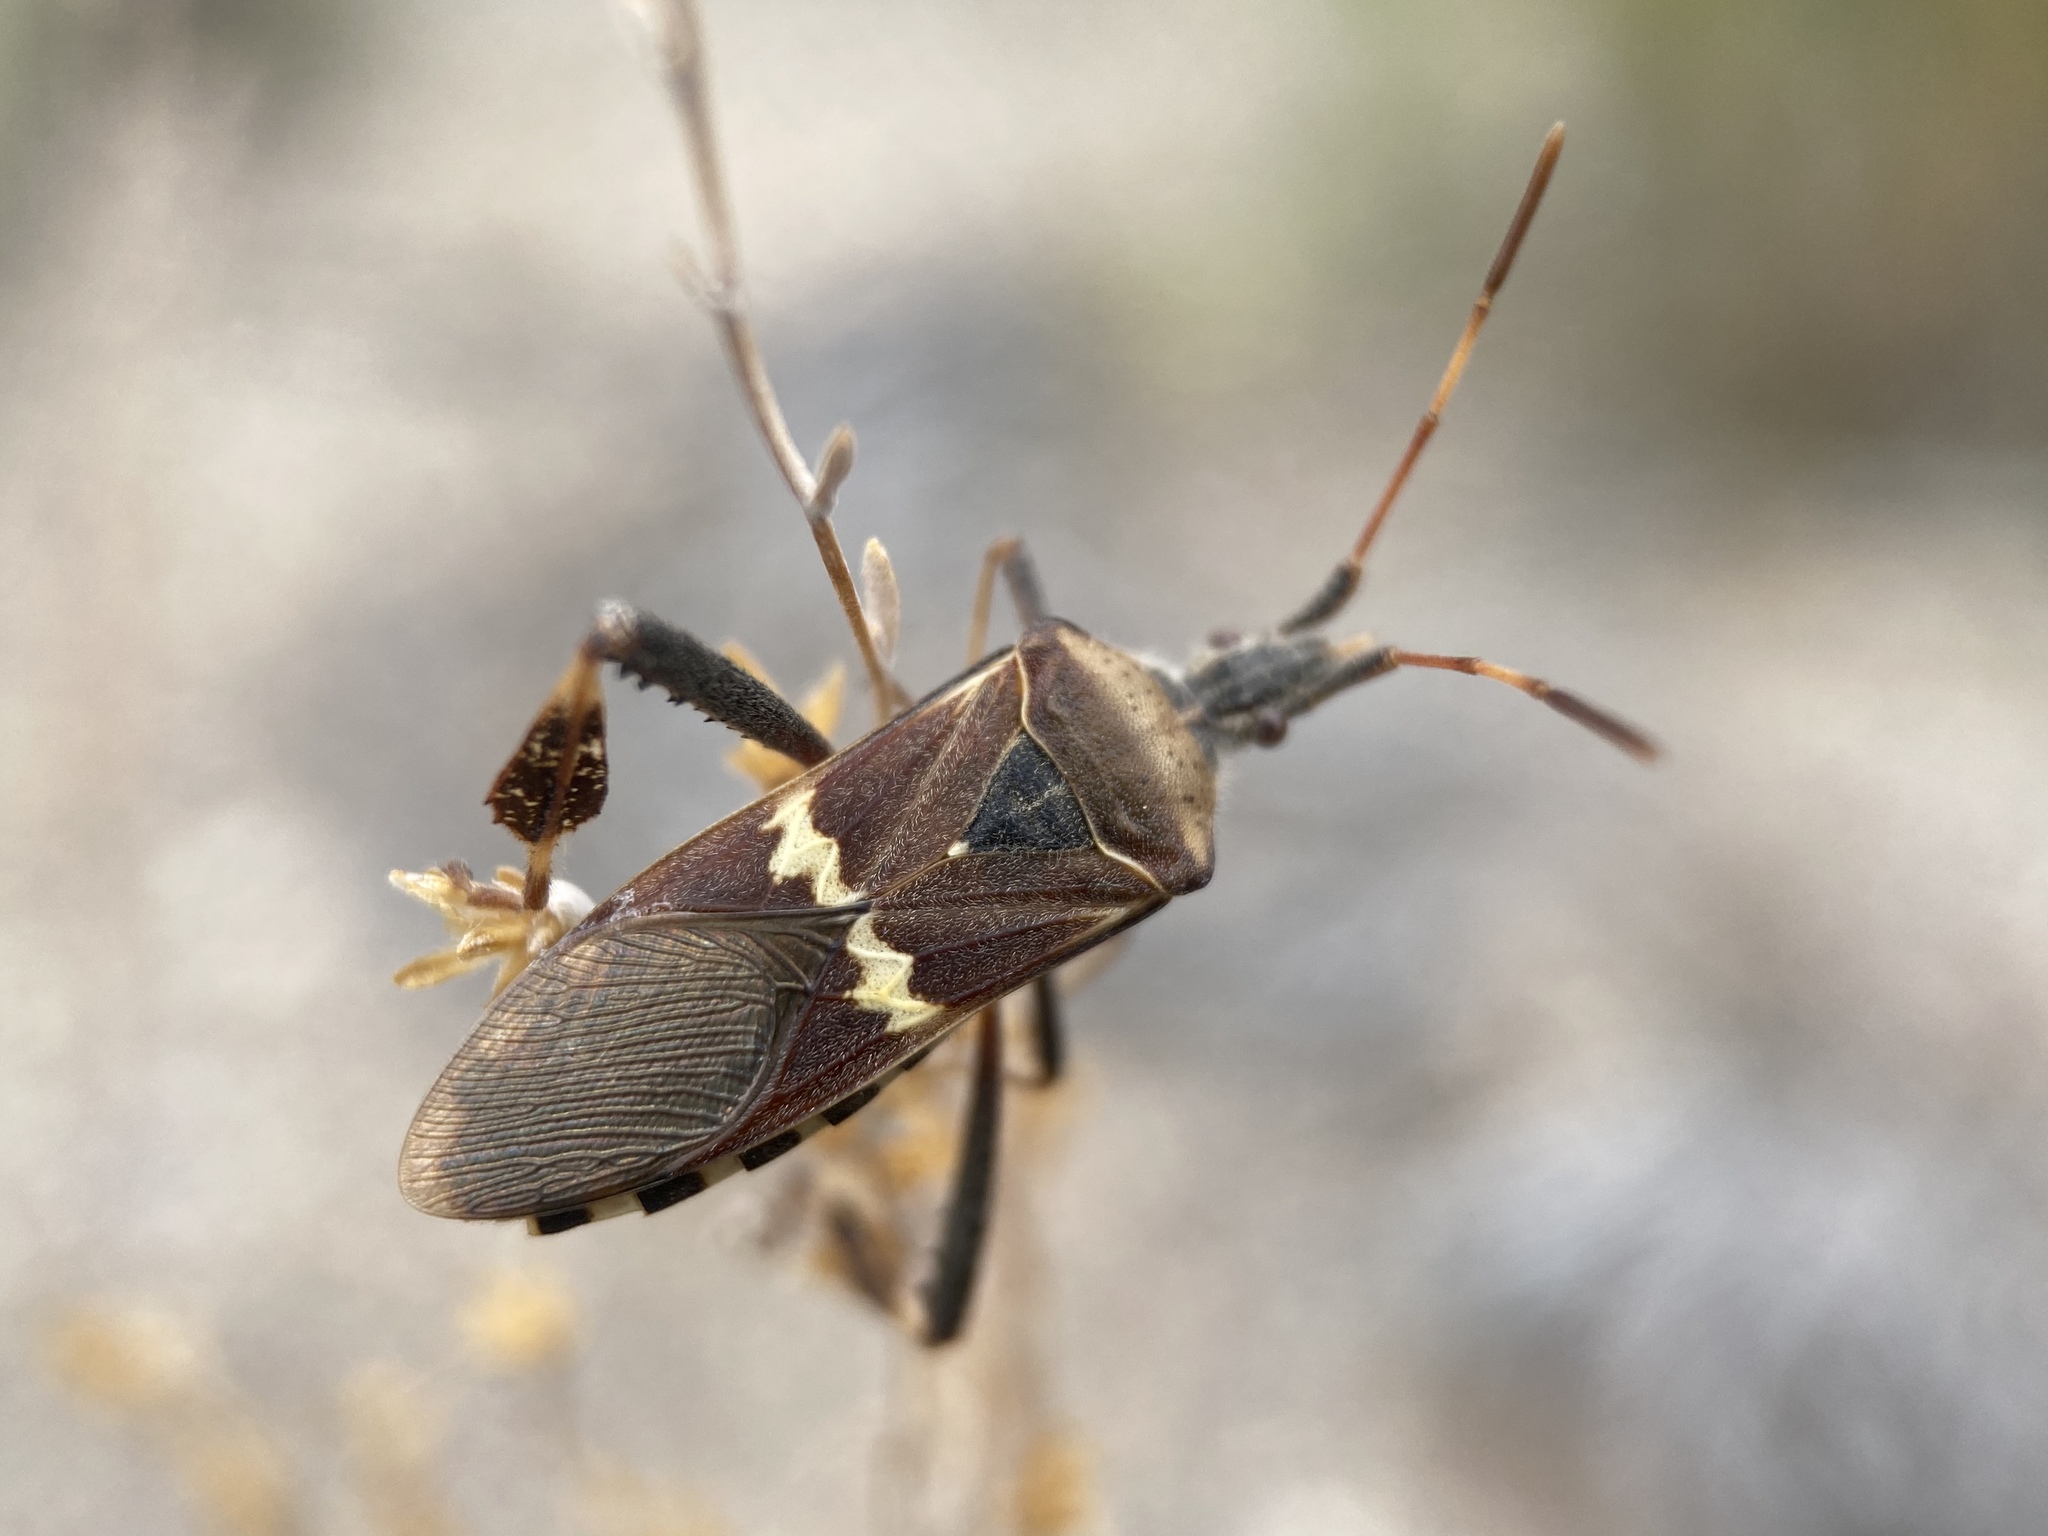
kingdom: Animalia
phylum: Arthropoda
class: Insecta
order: Hemiptera
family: Coreidae
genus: Leptoglossus
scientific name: Leptoglossus clypealis
